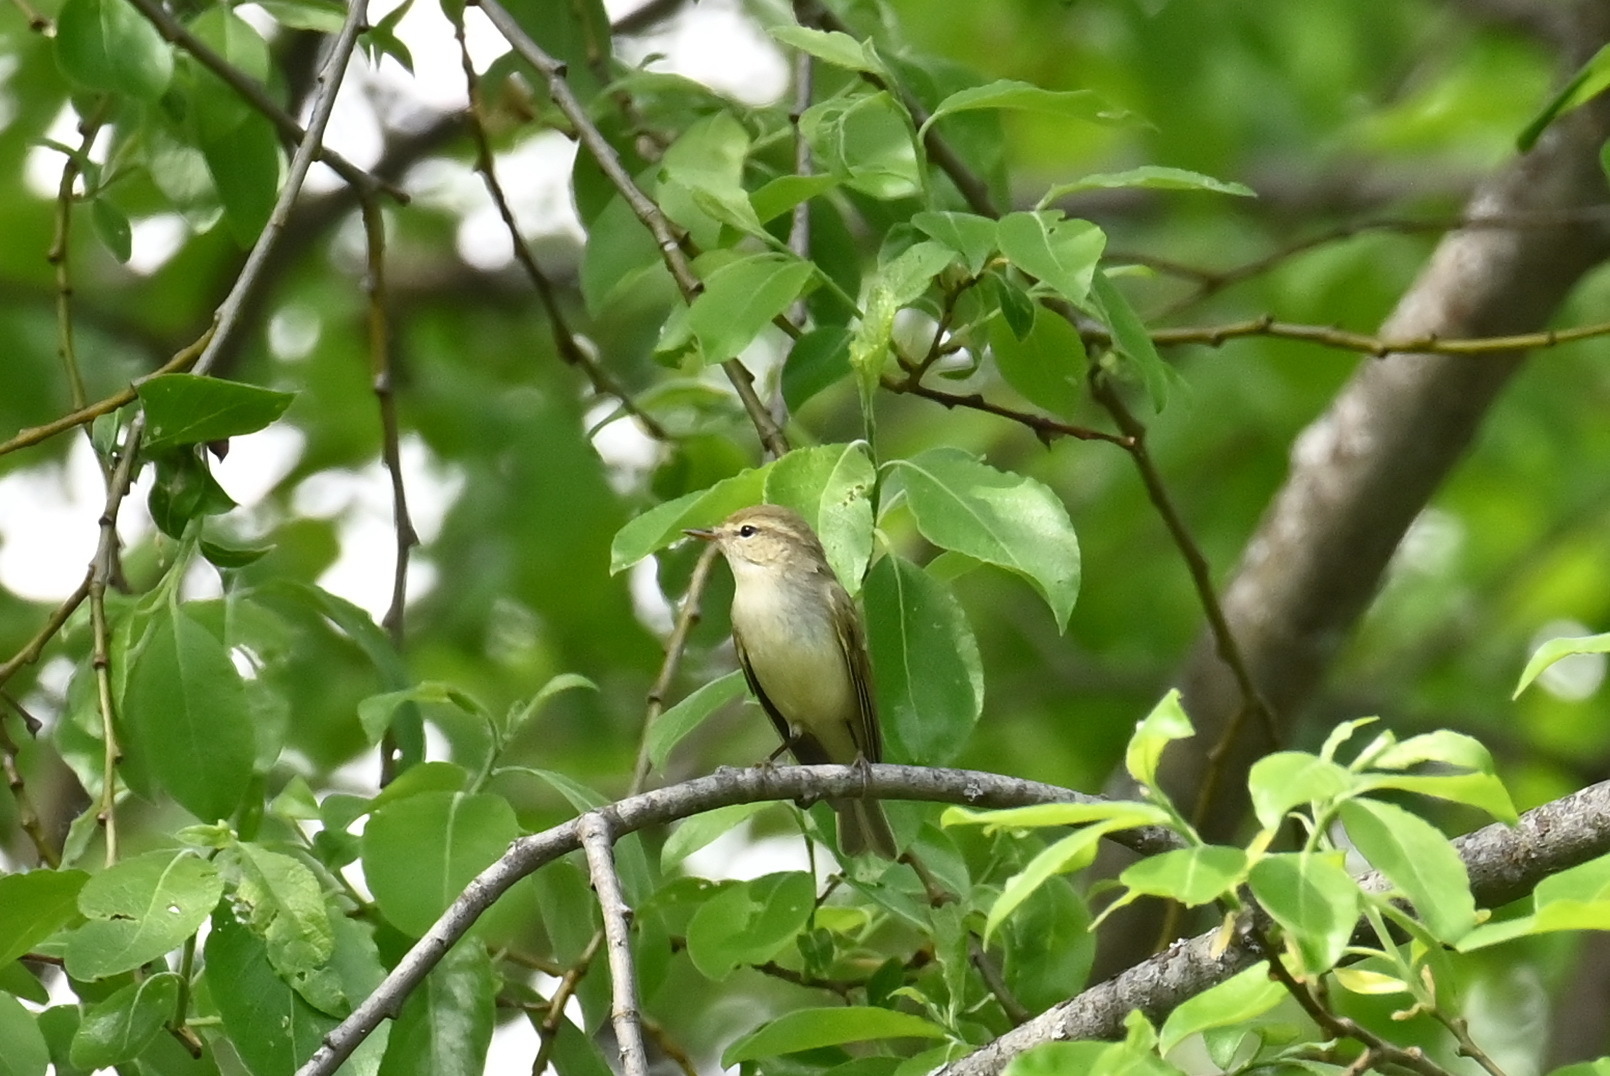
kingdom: Animalia
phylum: Chordata
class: Aves
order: Passeriformes
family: Phylloscopidae
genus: Phylloscopus
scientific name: Phylloscopus trochiloides
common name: Greenish warbler
